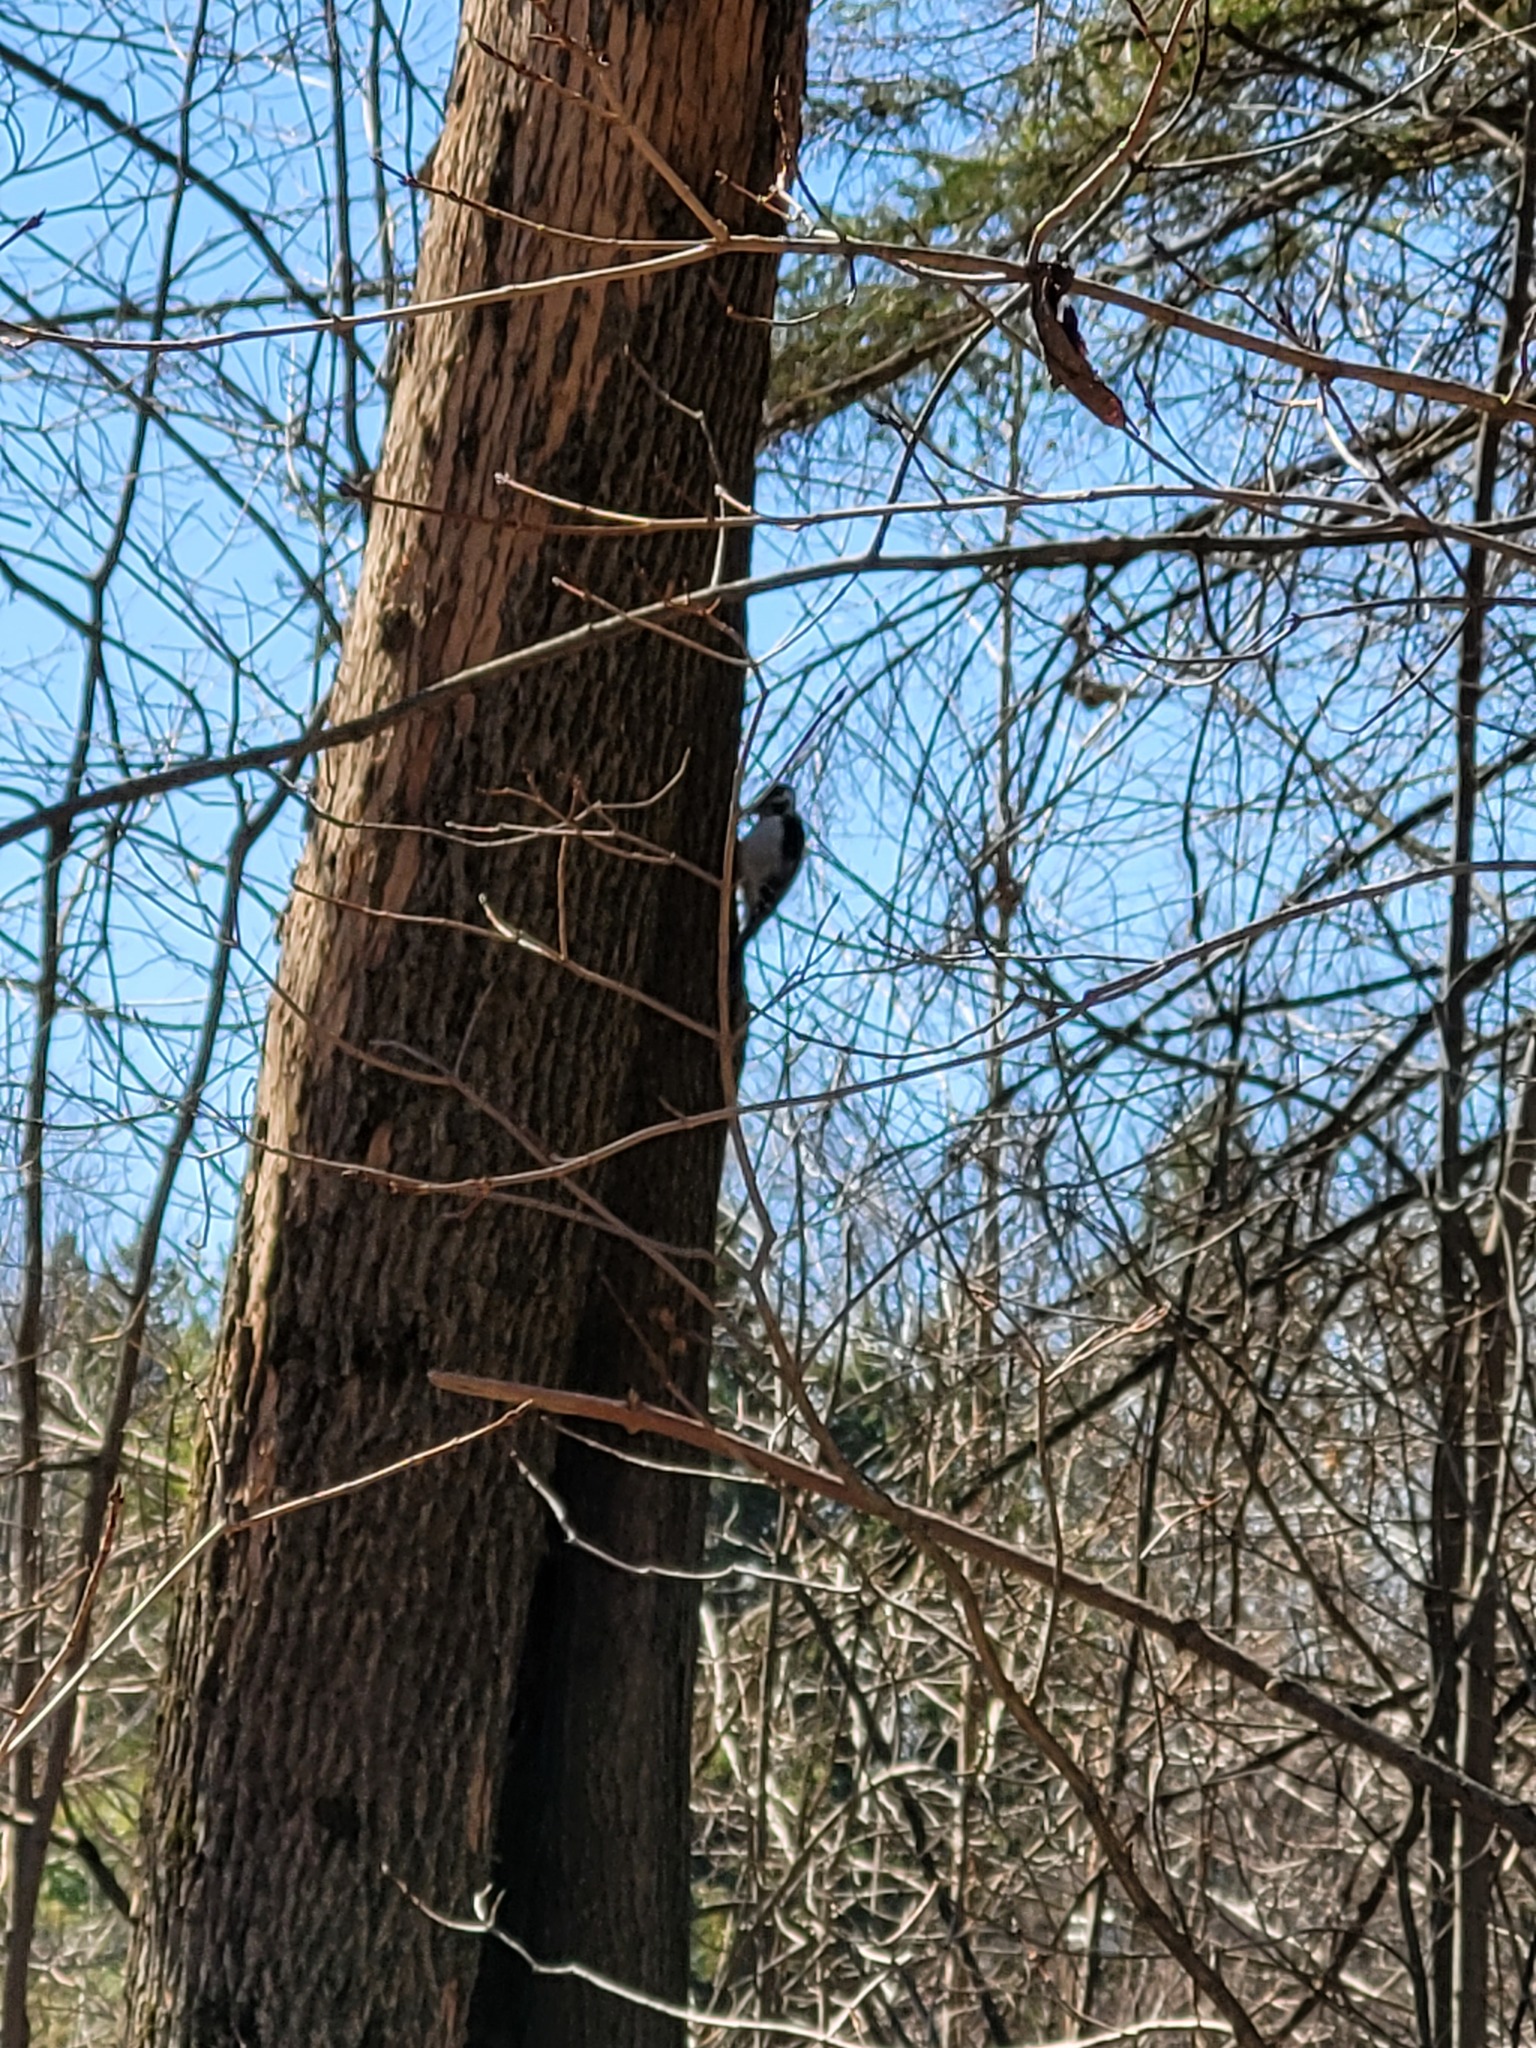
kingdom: Animalia
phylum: Chordata
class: Aves
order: Piciformes
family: Picidae
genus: Leuconotopicus
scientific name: Leuconotopicus villosus
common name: Hairy woodpecker
